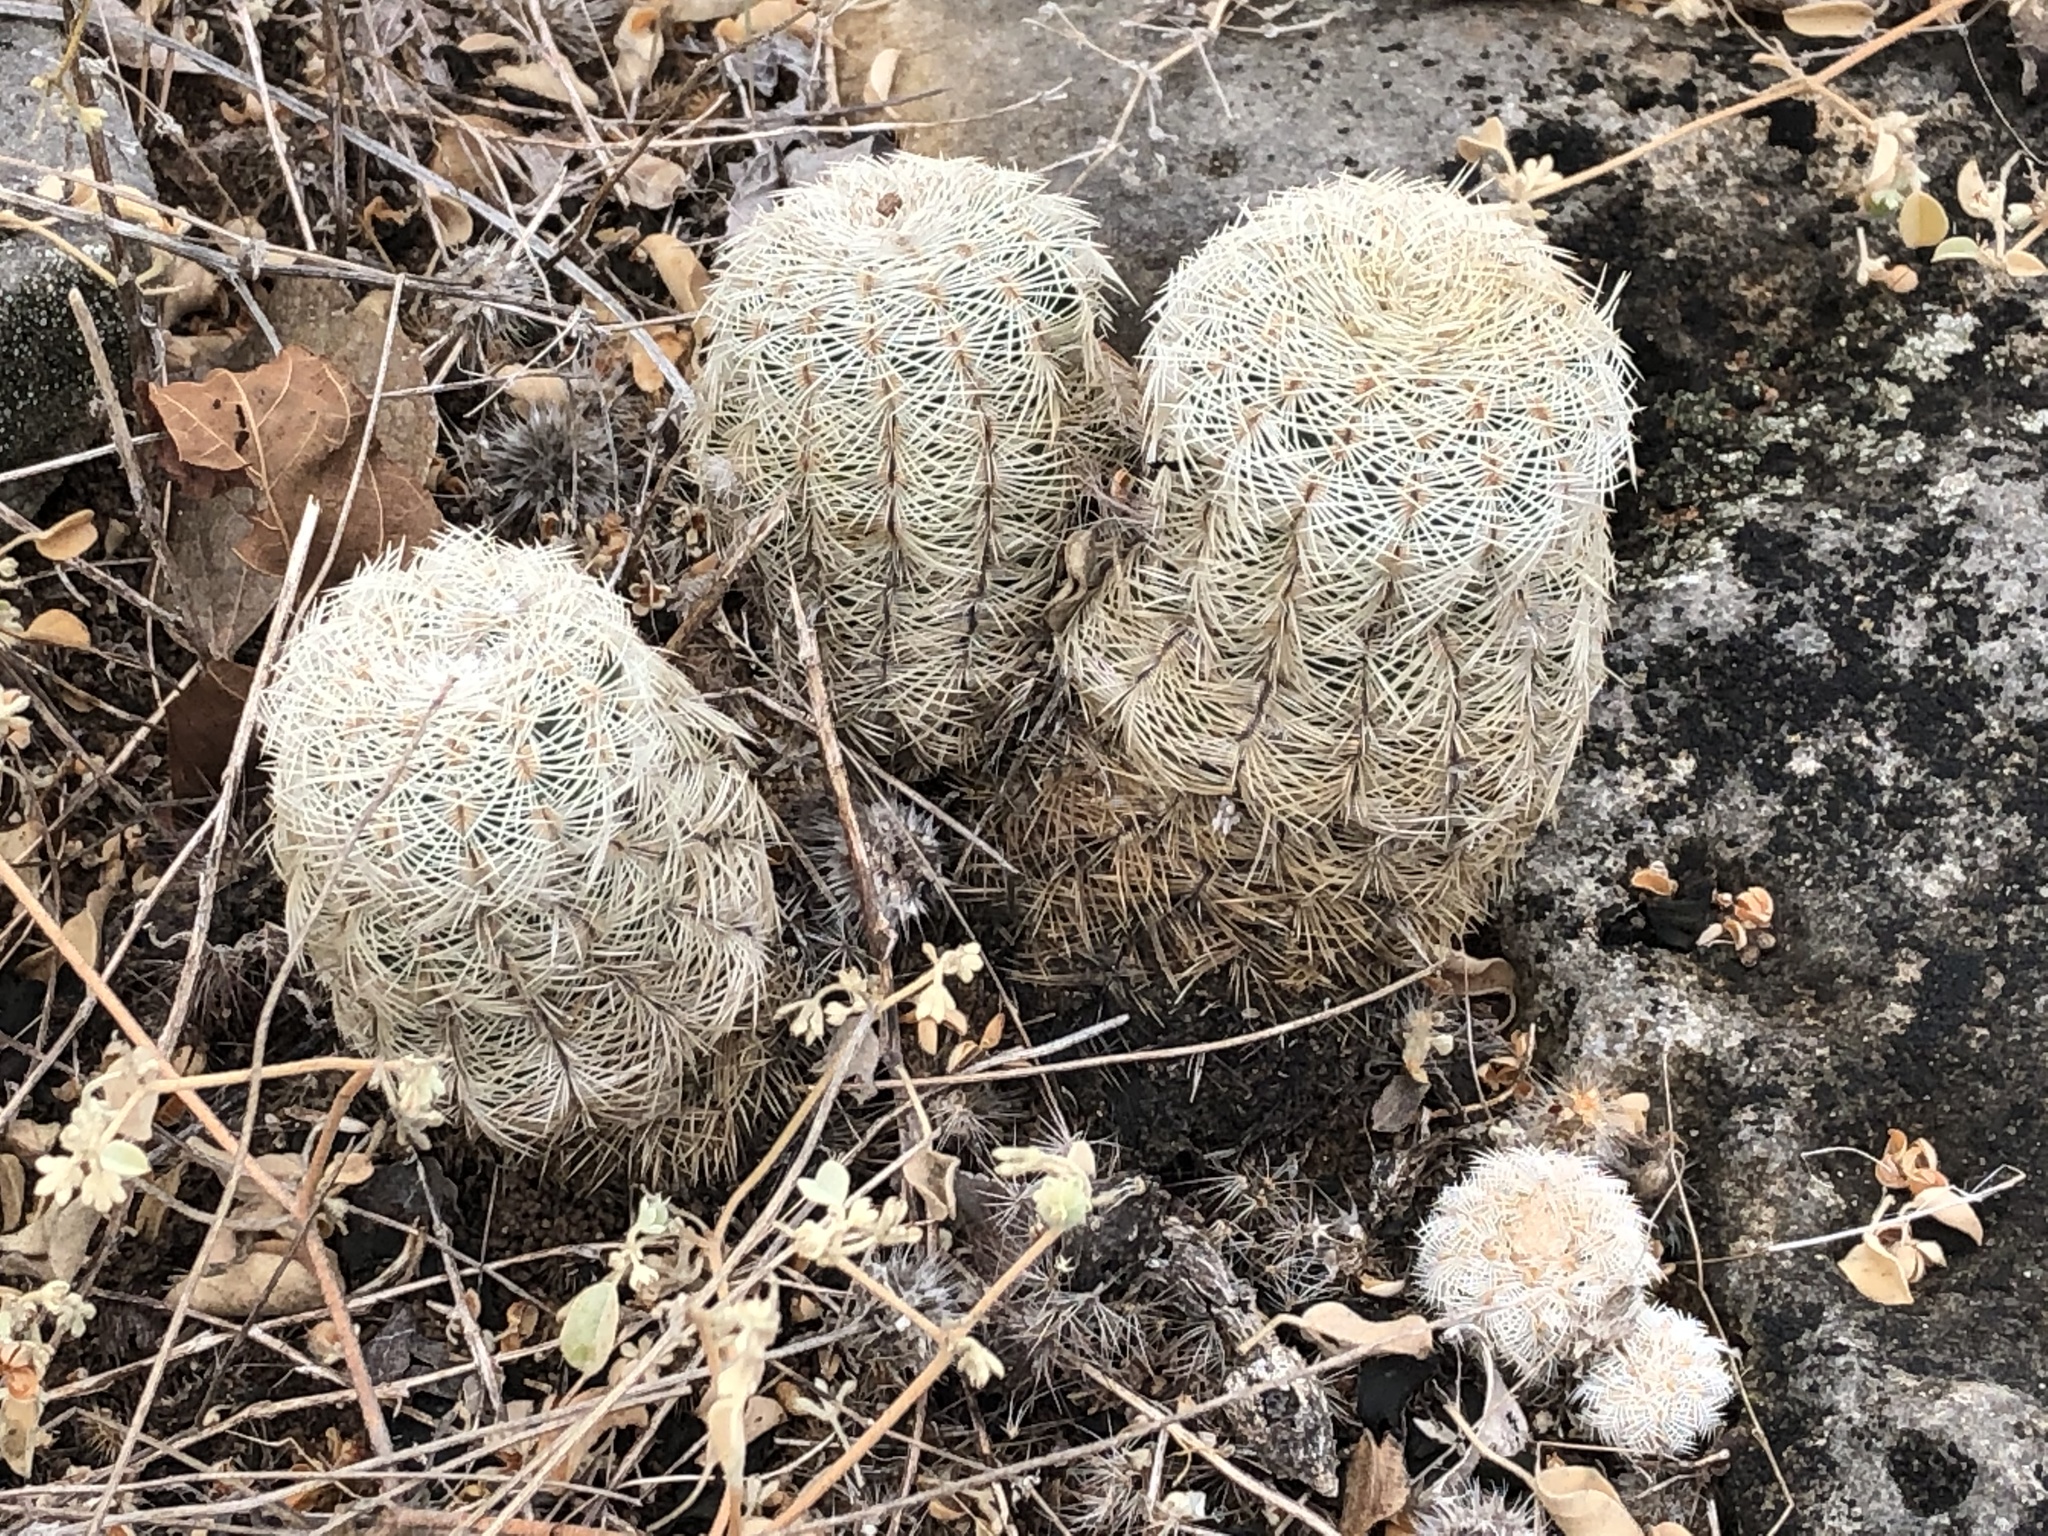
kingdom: Plantae
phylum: Tracheophyta
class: Magnoliopsida
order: Caryophyllales
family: Cactaceae
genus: Echinocereus
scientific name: Echinocereus reichenbachii
